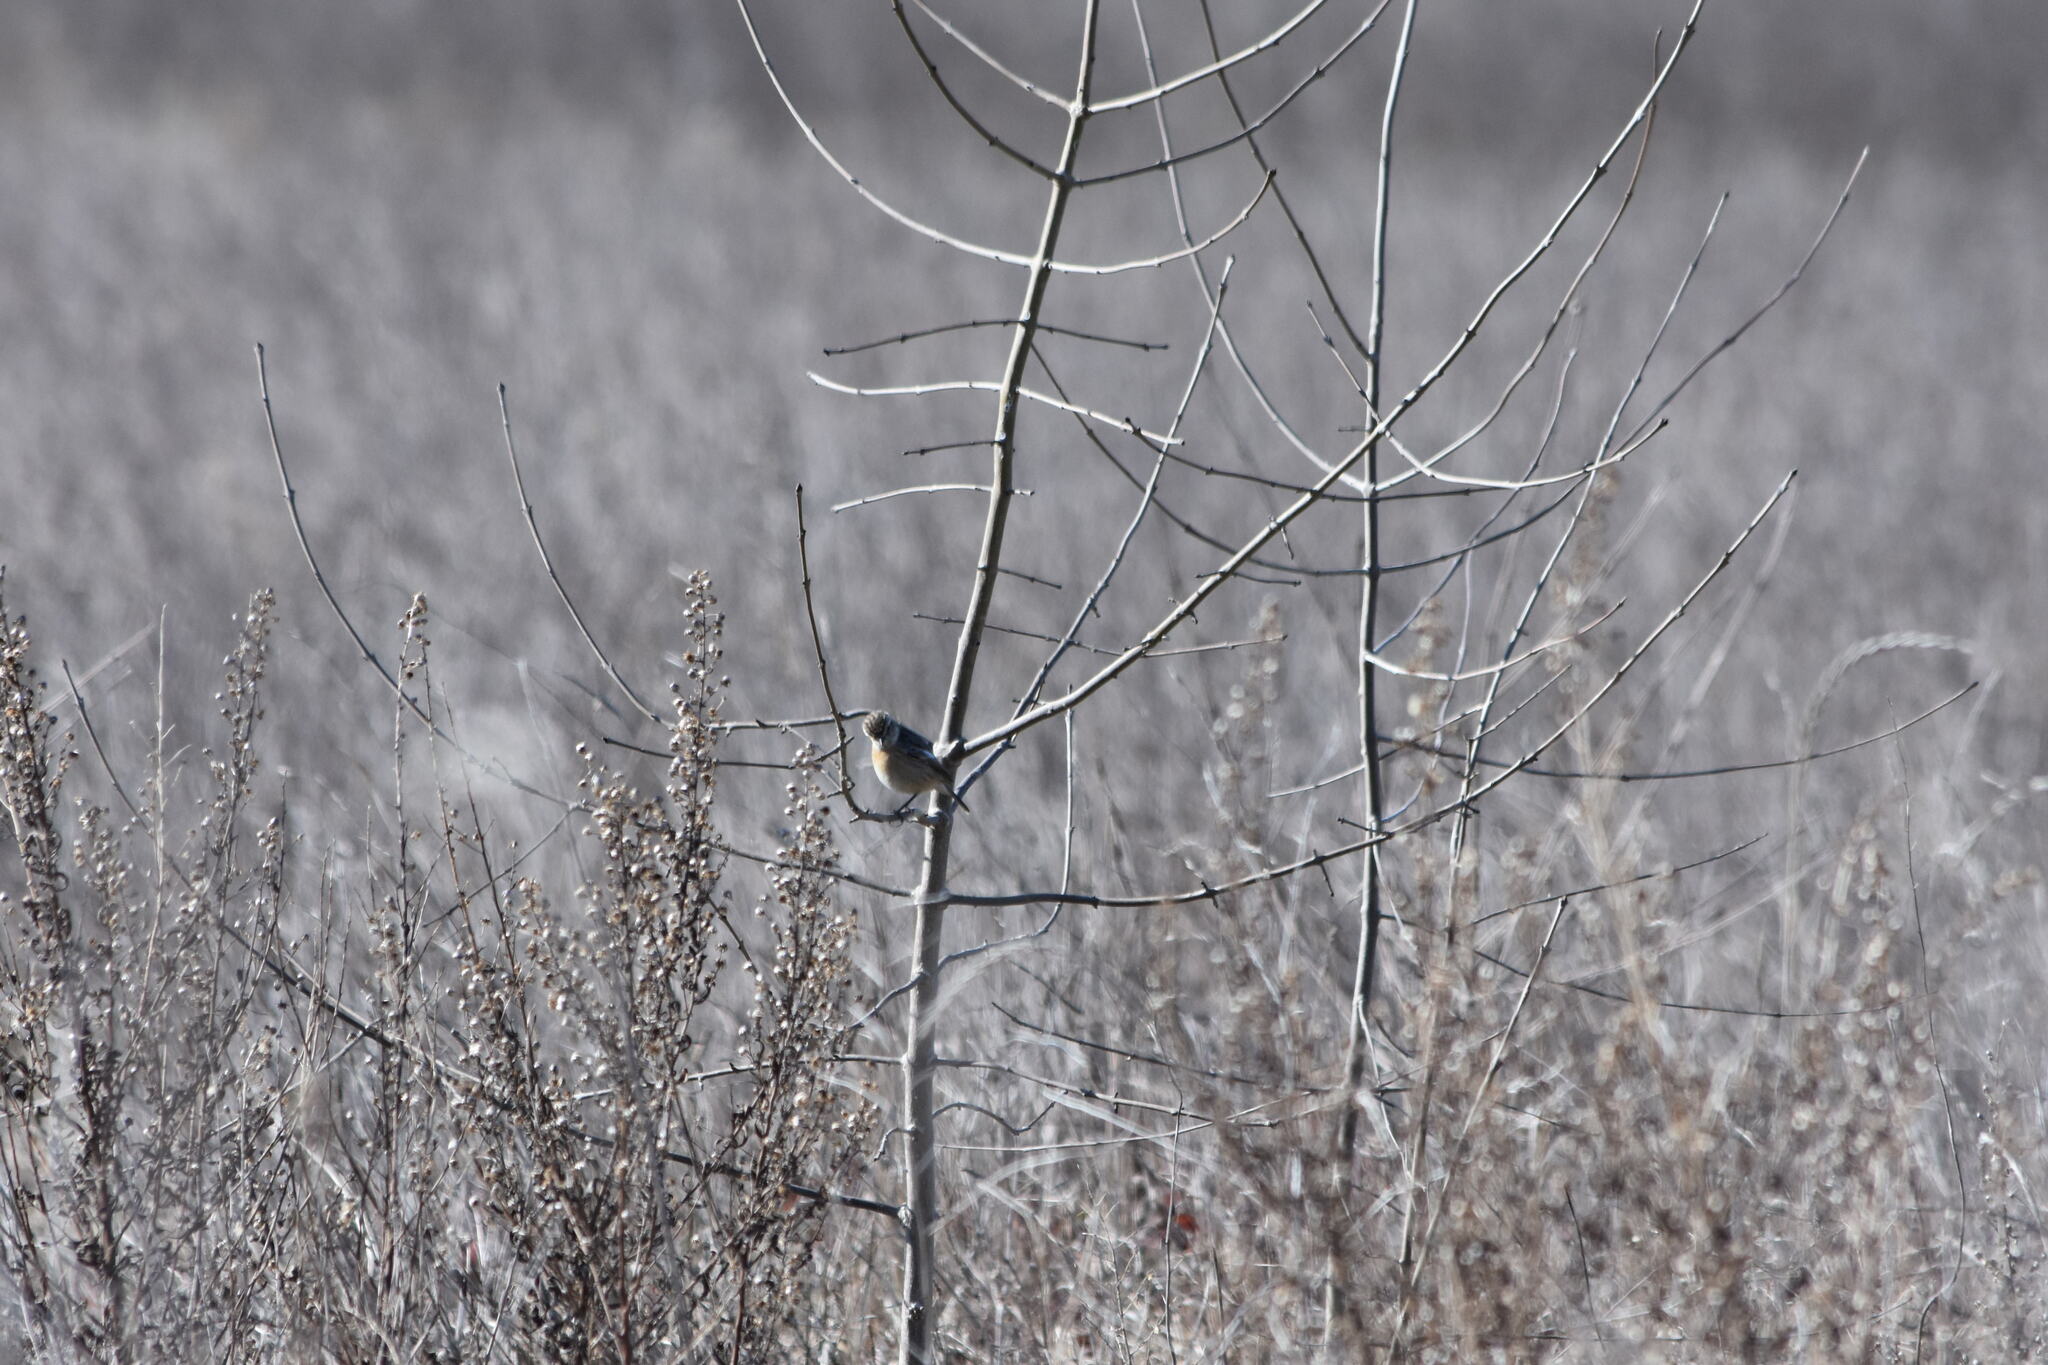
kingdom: Animalia
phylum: Chordata
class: Aves
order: Passeriformes
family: Muscicapidae
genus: Saxicola
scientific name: Saxicola rubicola
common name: European stonechat
